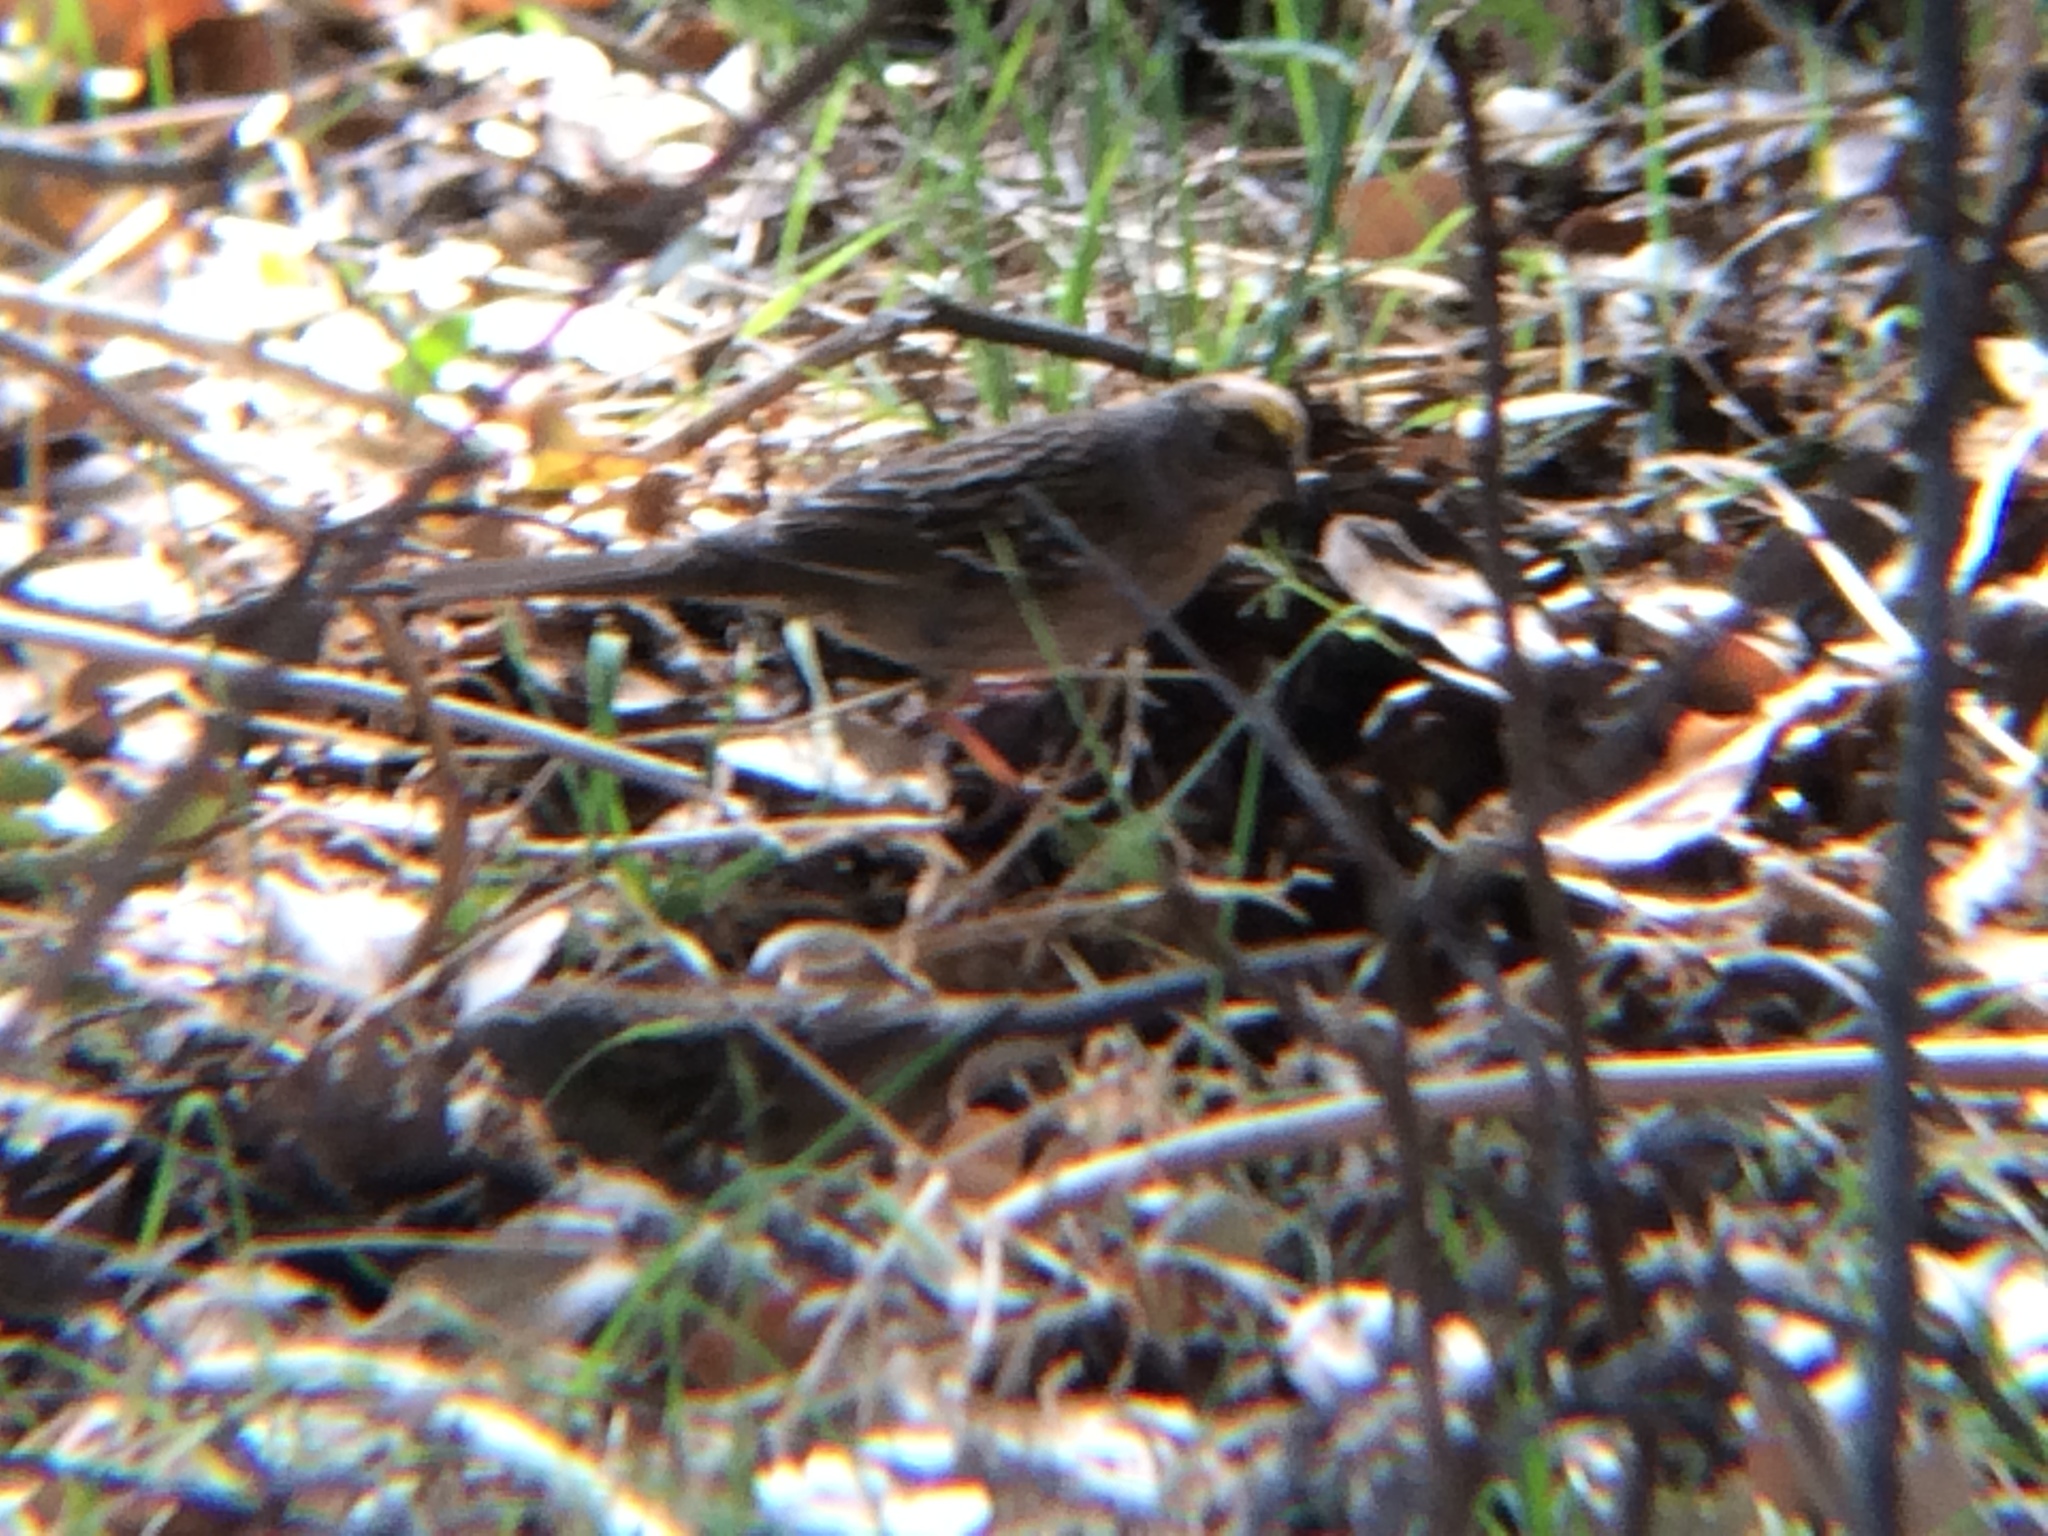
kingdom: Animalia
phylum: Chordata
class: Aves
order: Passeriformes
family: Passerellidae
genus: Zonotrichia
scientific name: Zonotrichia atricapilla
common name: Golden-crowned sparrow
